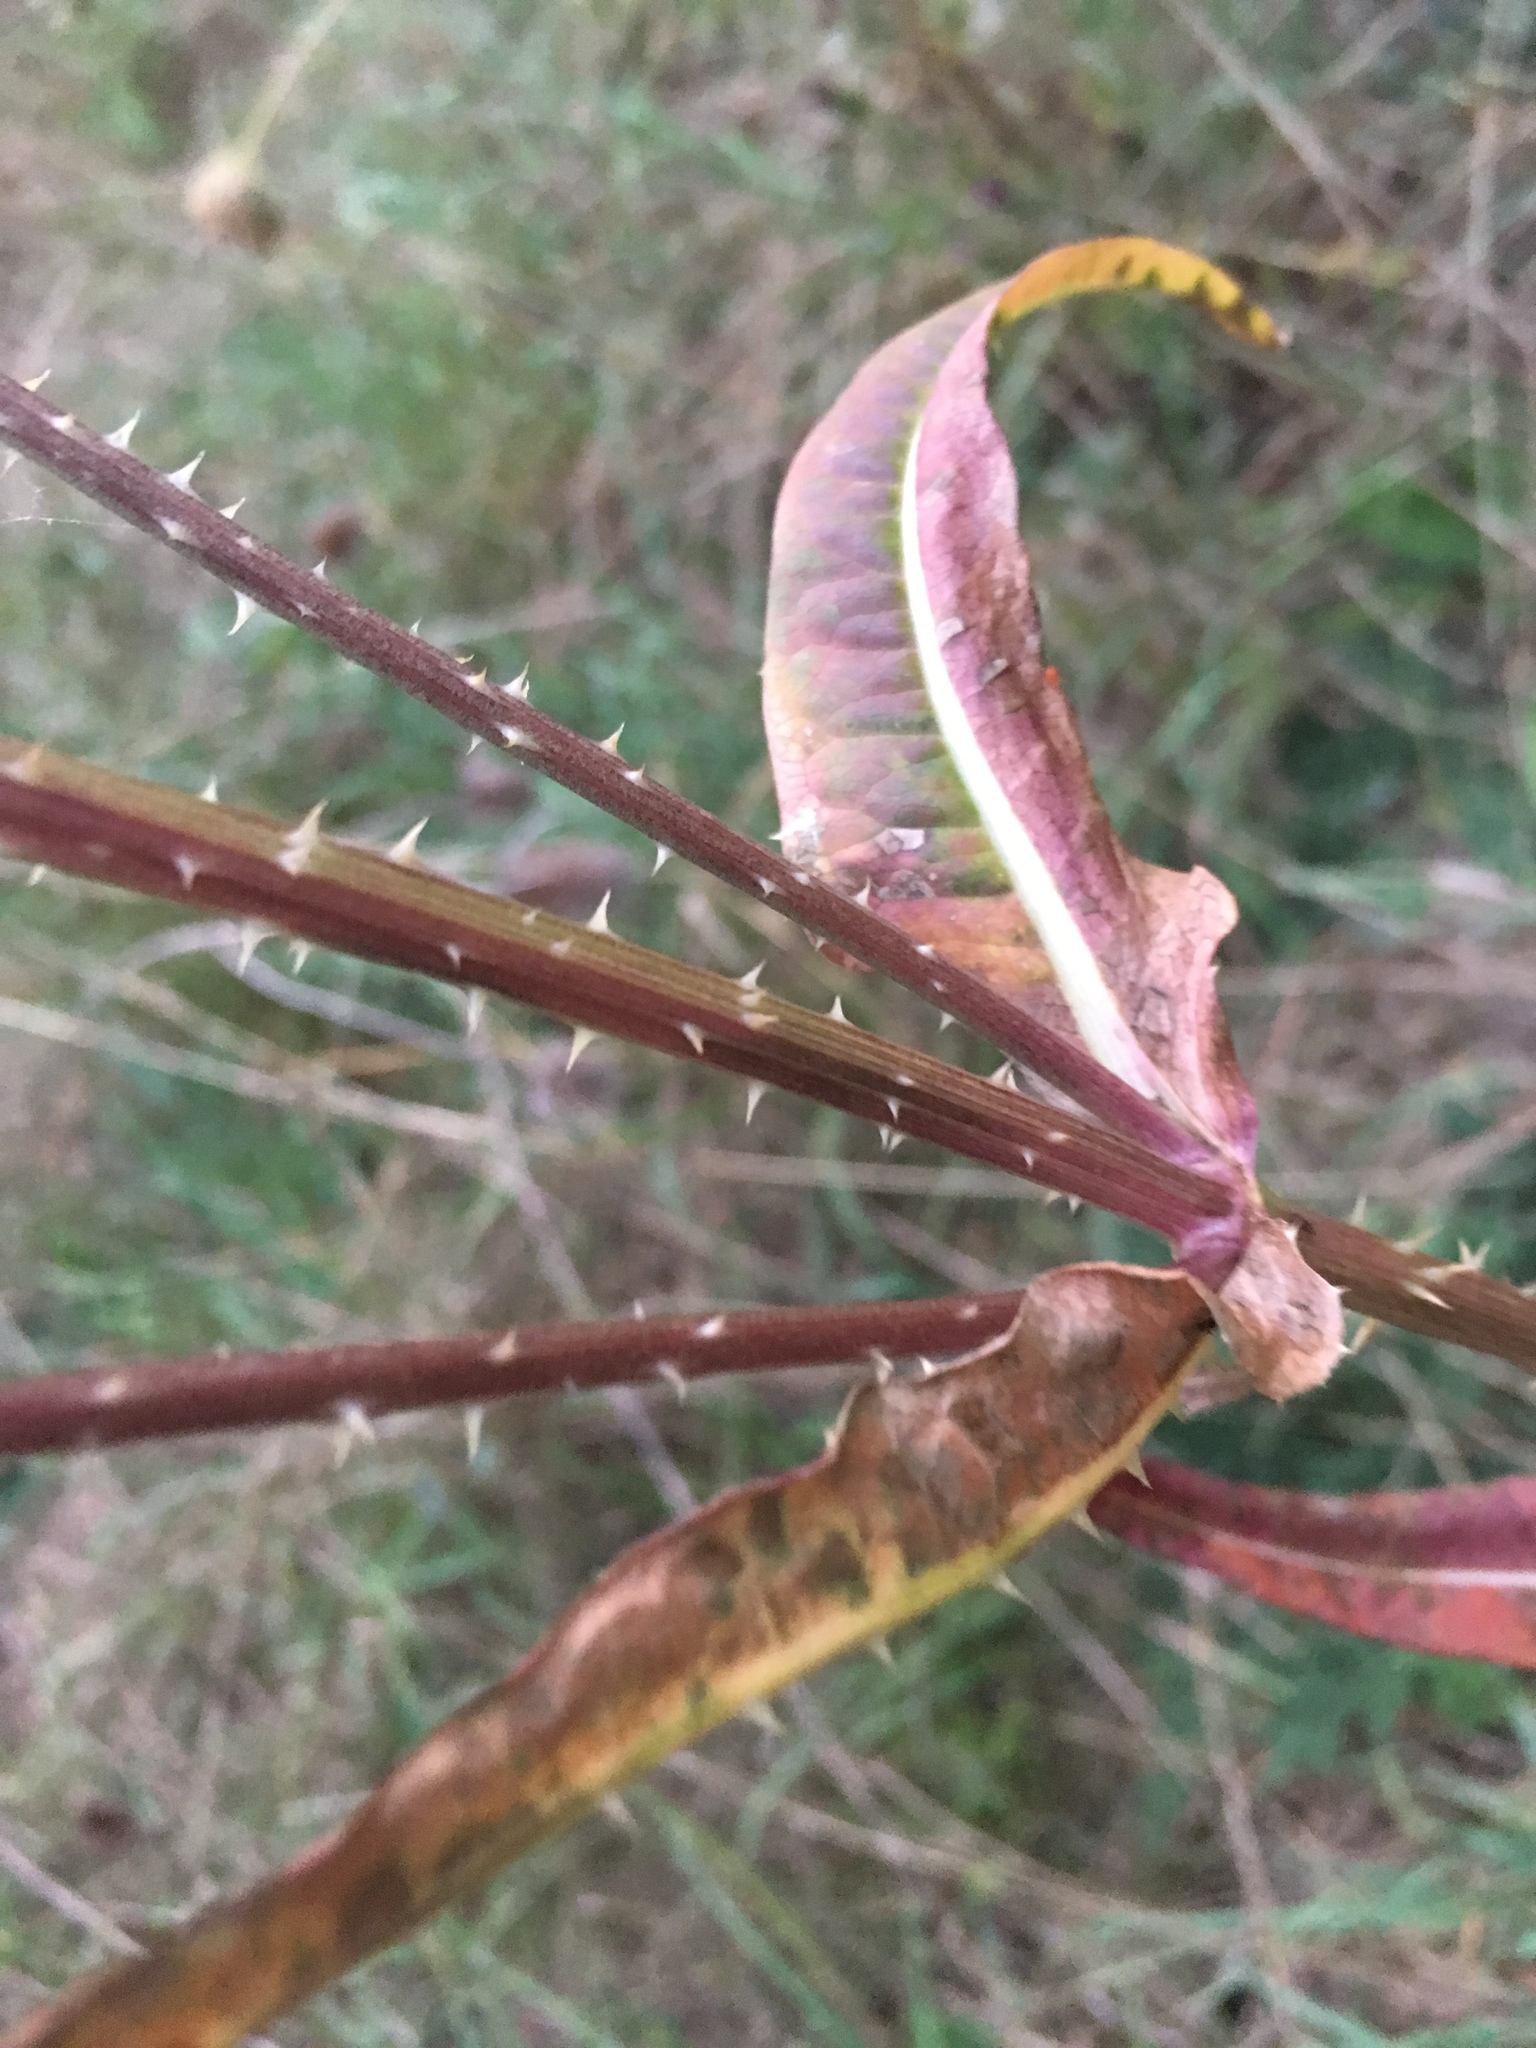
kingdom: Plantae
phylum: Tracheophyta
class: Magnoliopsida
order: Dipsacales
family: Caprifoliaceae
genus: Dipsacus
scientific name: Dipsacus fullonum
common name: Teasel
